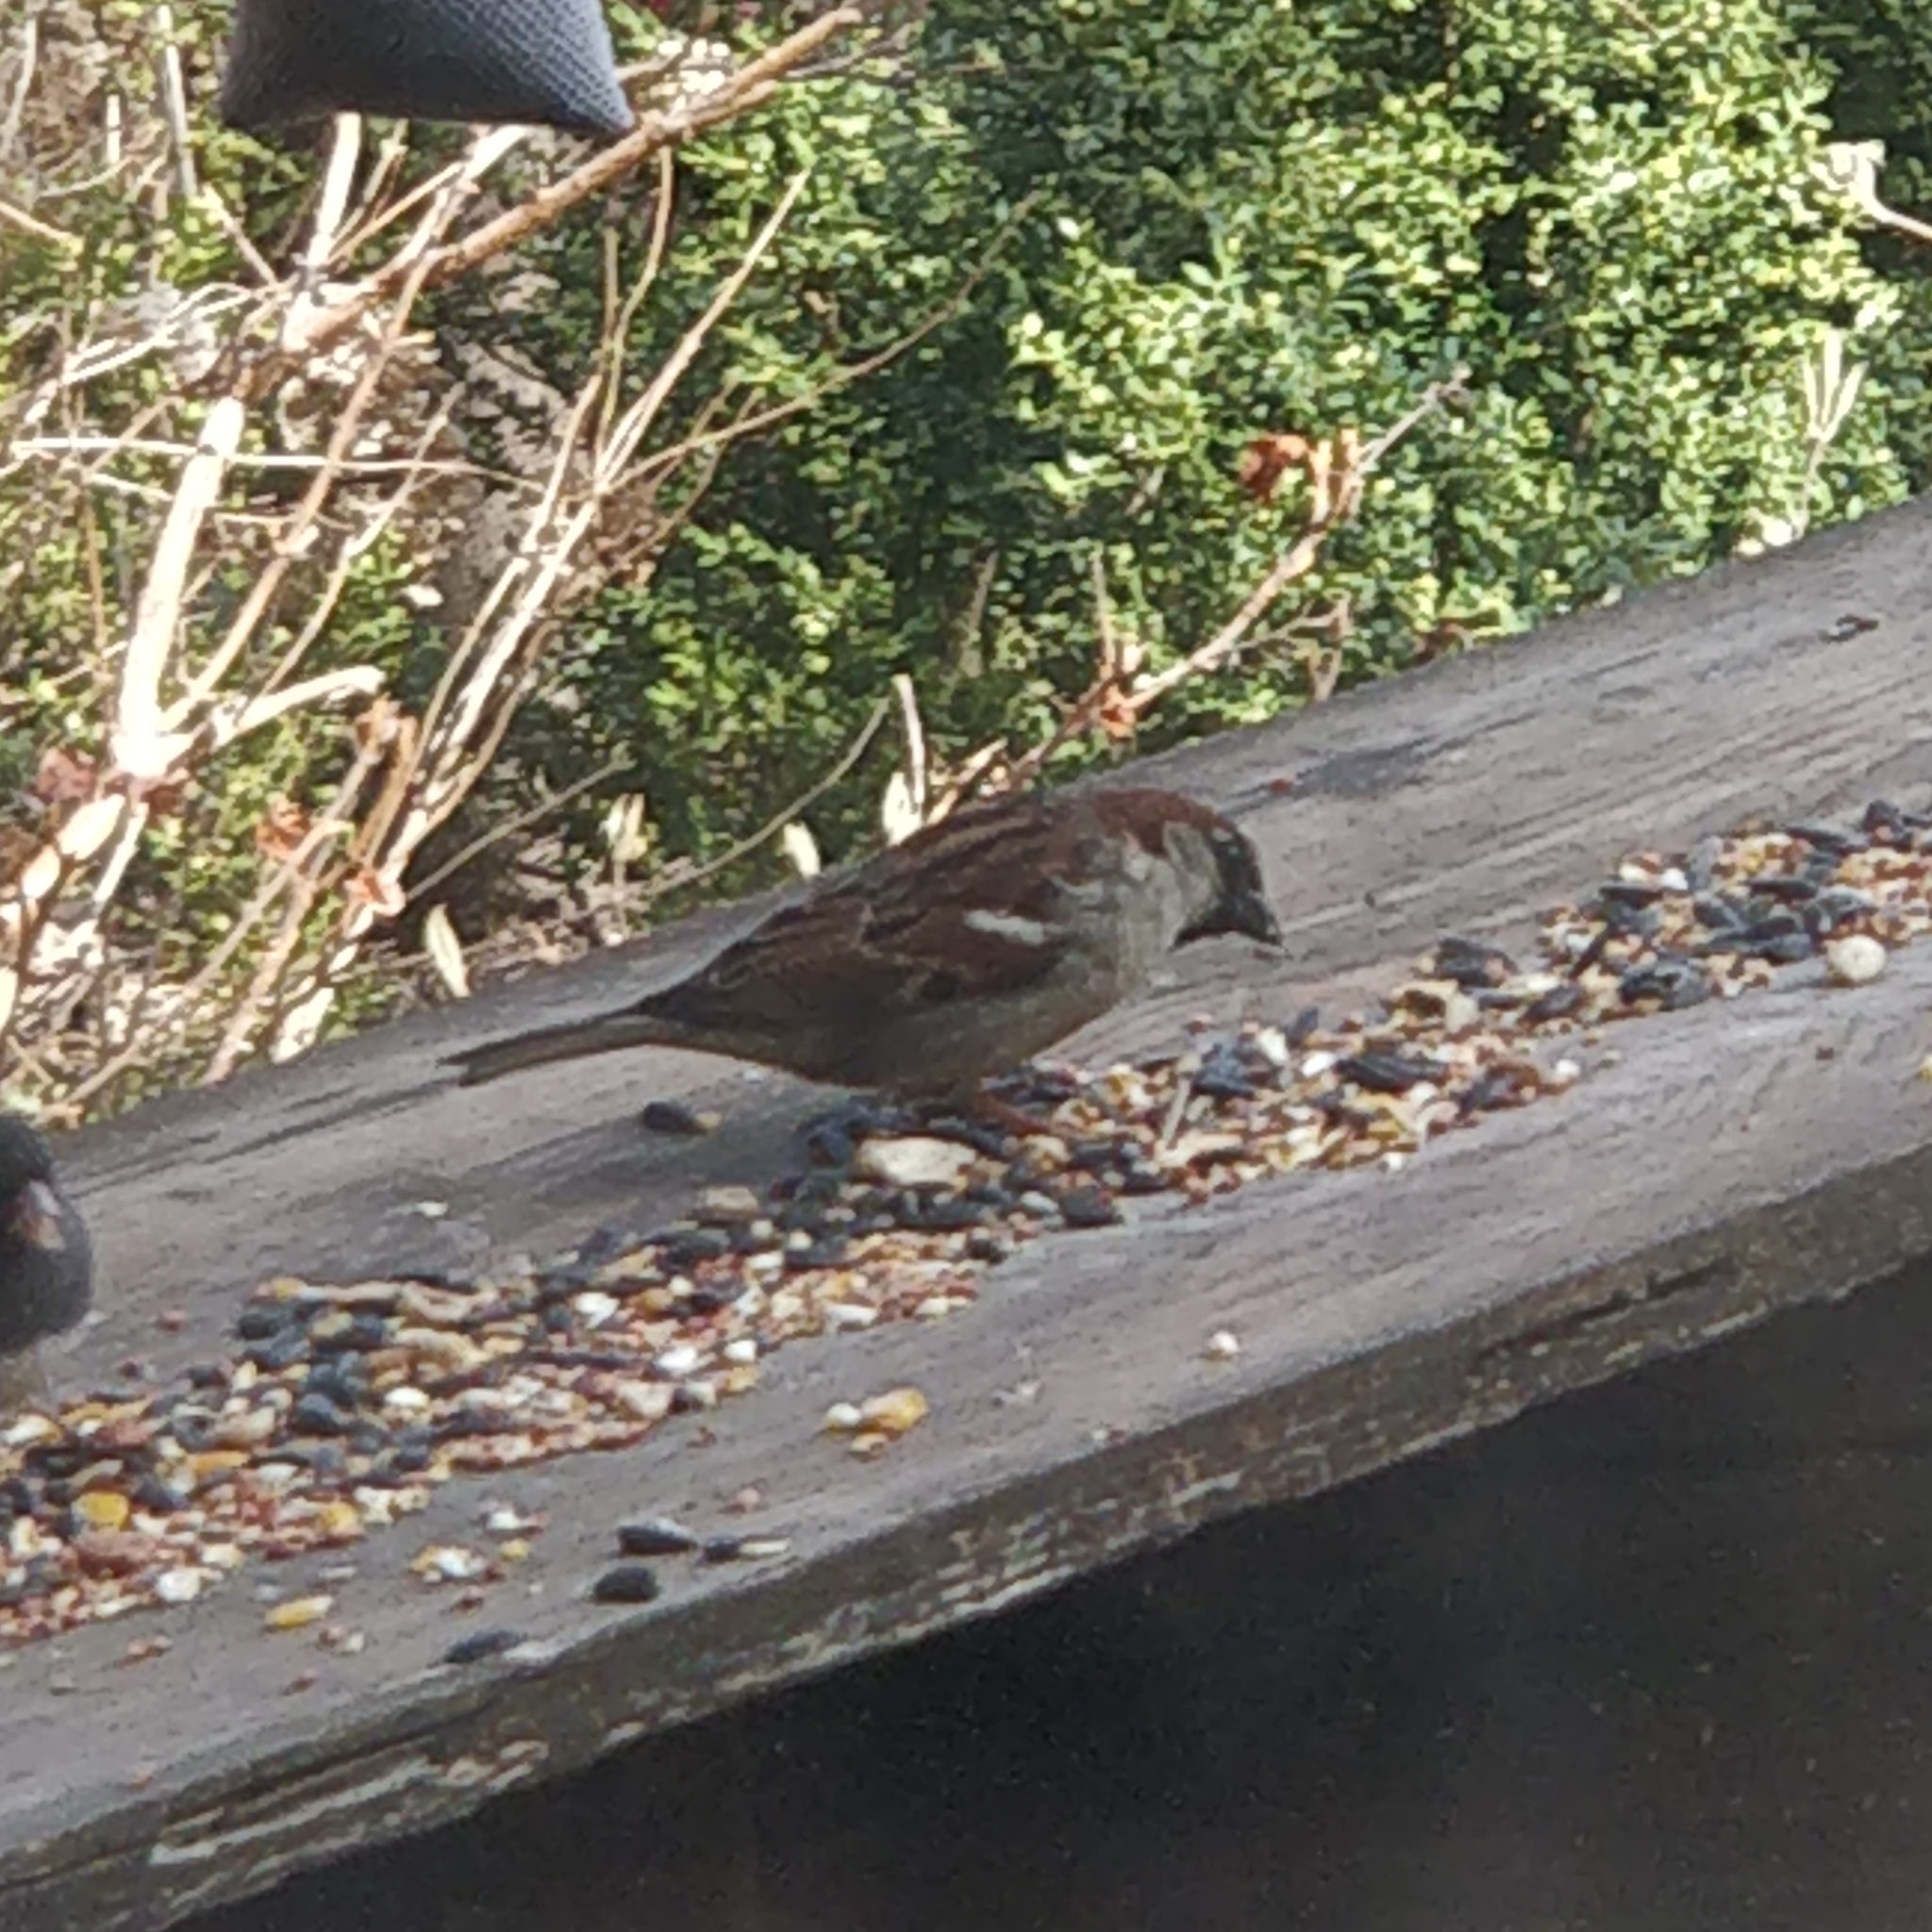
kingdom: Animalia
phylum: Chordata
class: Aves
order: Passeriformes
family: Passeridae
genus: Passer
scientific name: Passer domesticus
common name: House sparrow
